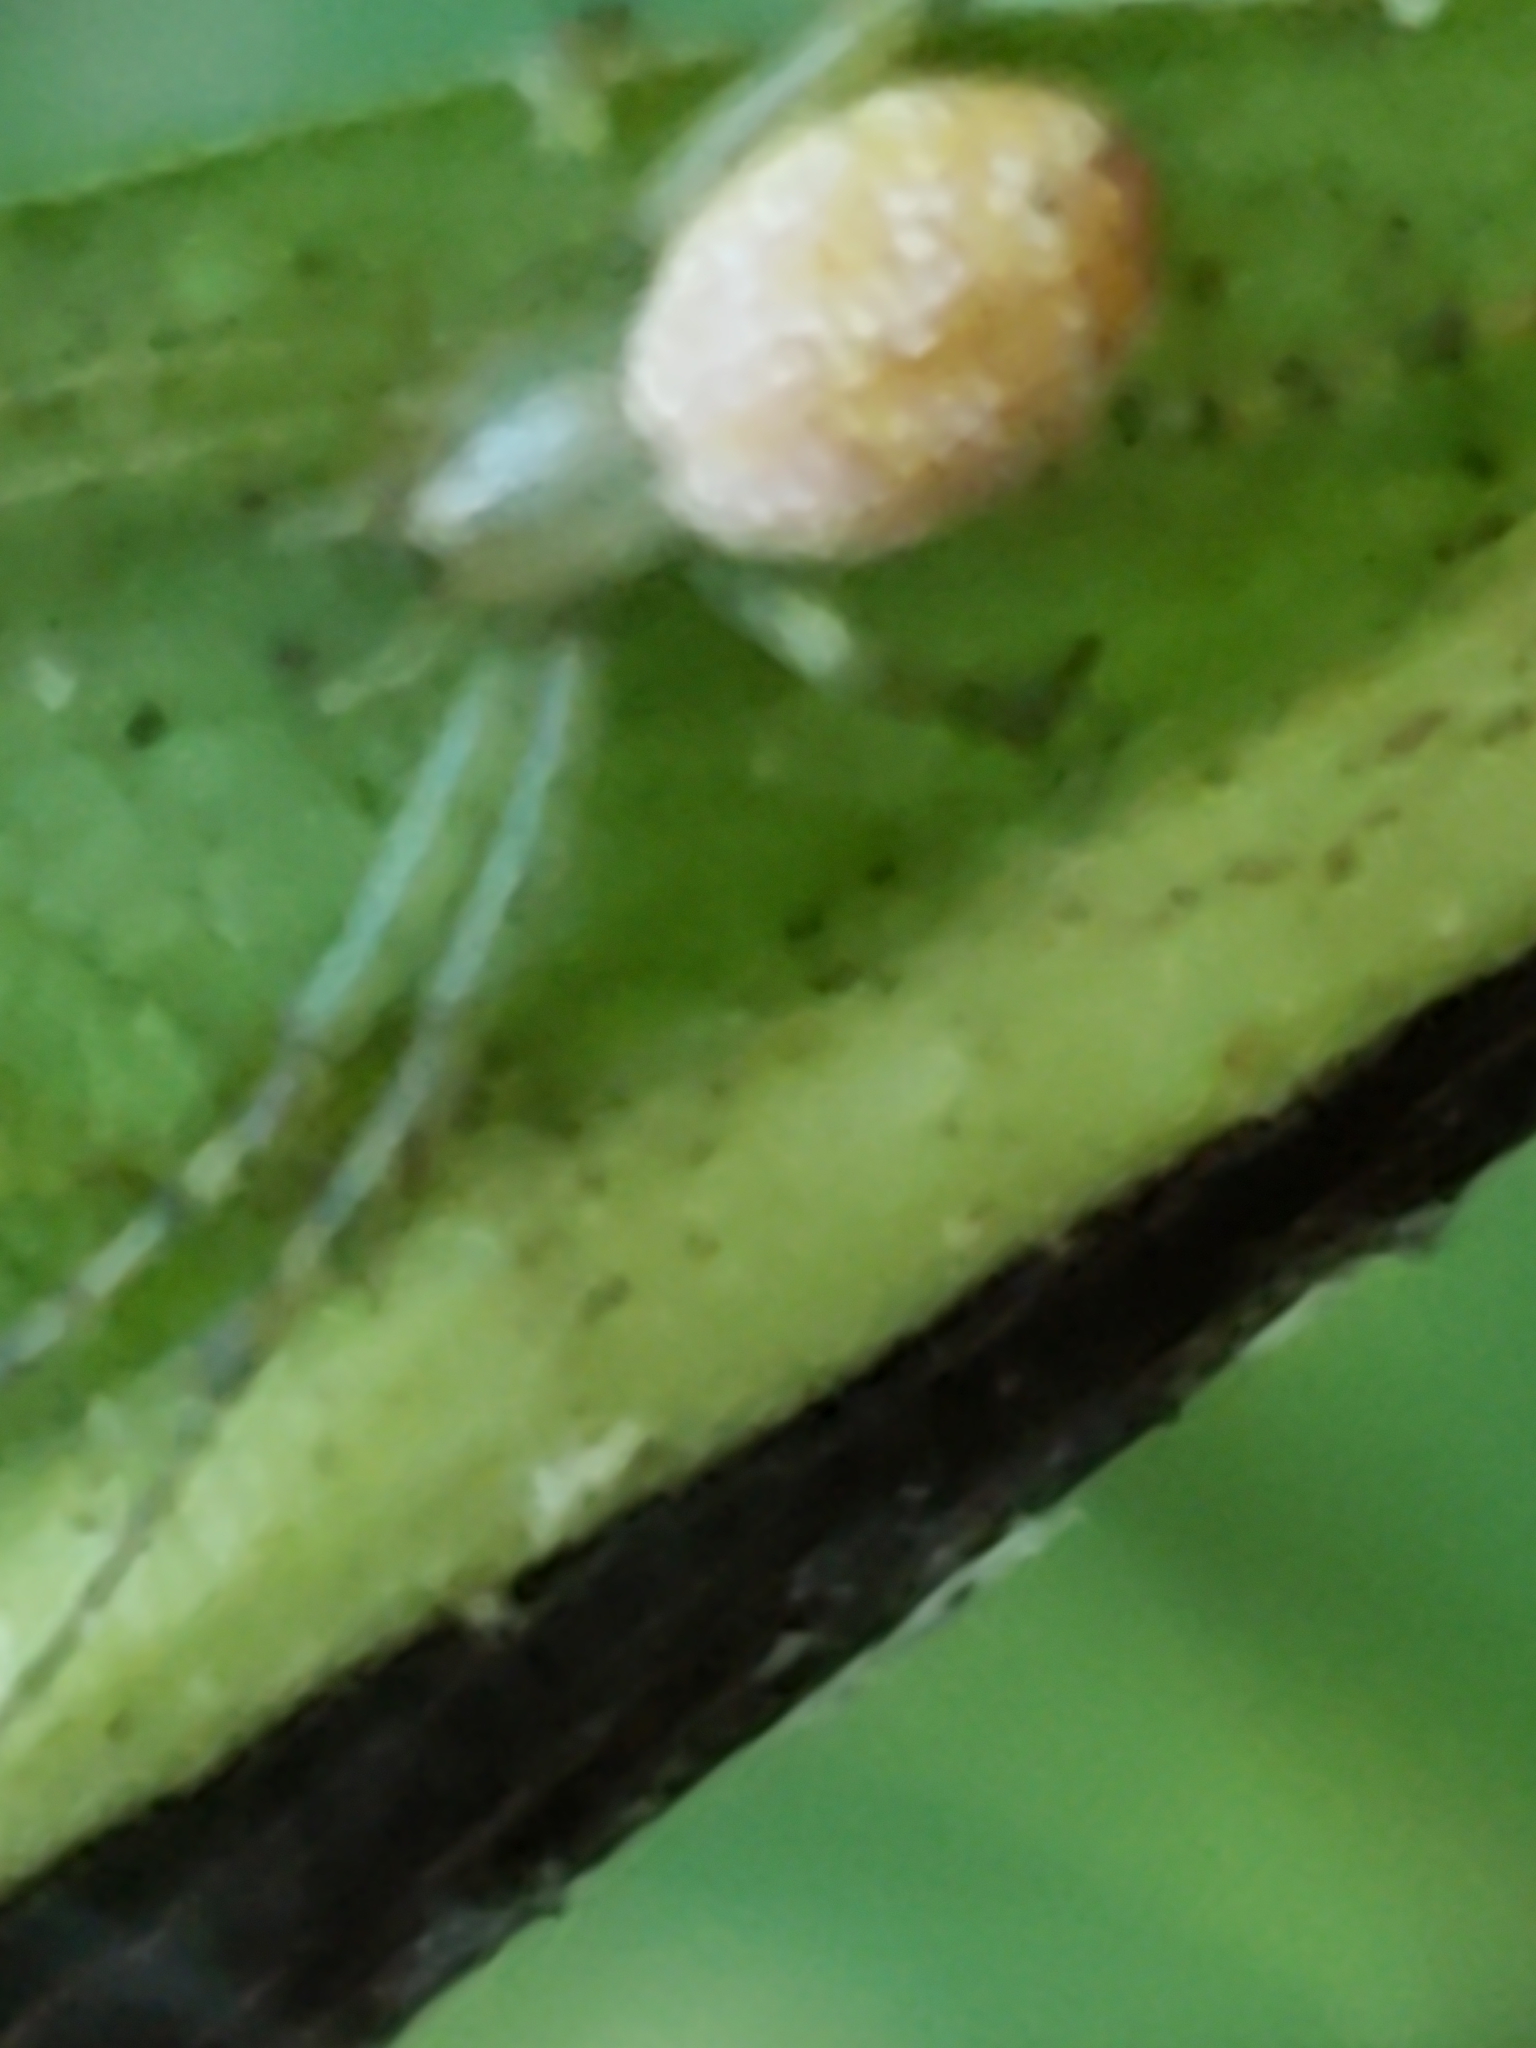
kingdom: Animalia
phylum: Arthropoda
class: Arachnida
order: Araneae
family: Araneidae
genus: Mangora
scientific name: Mangora maculata
